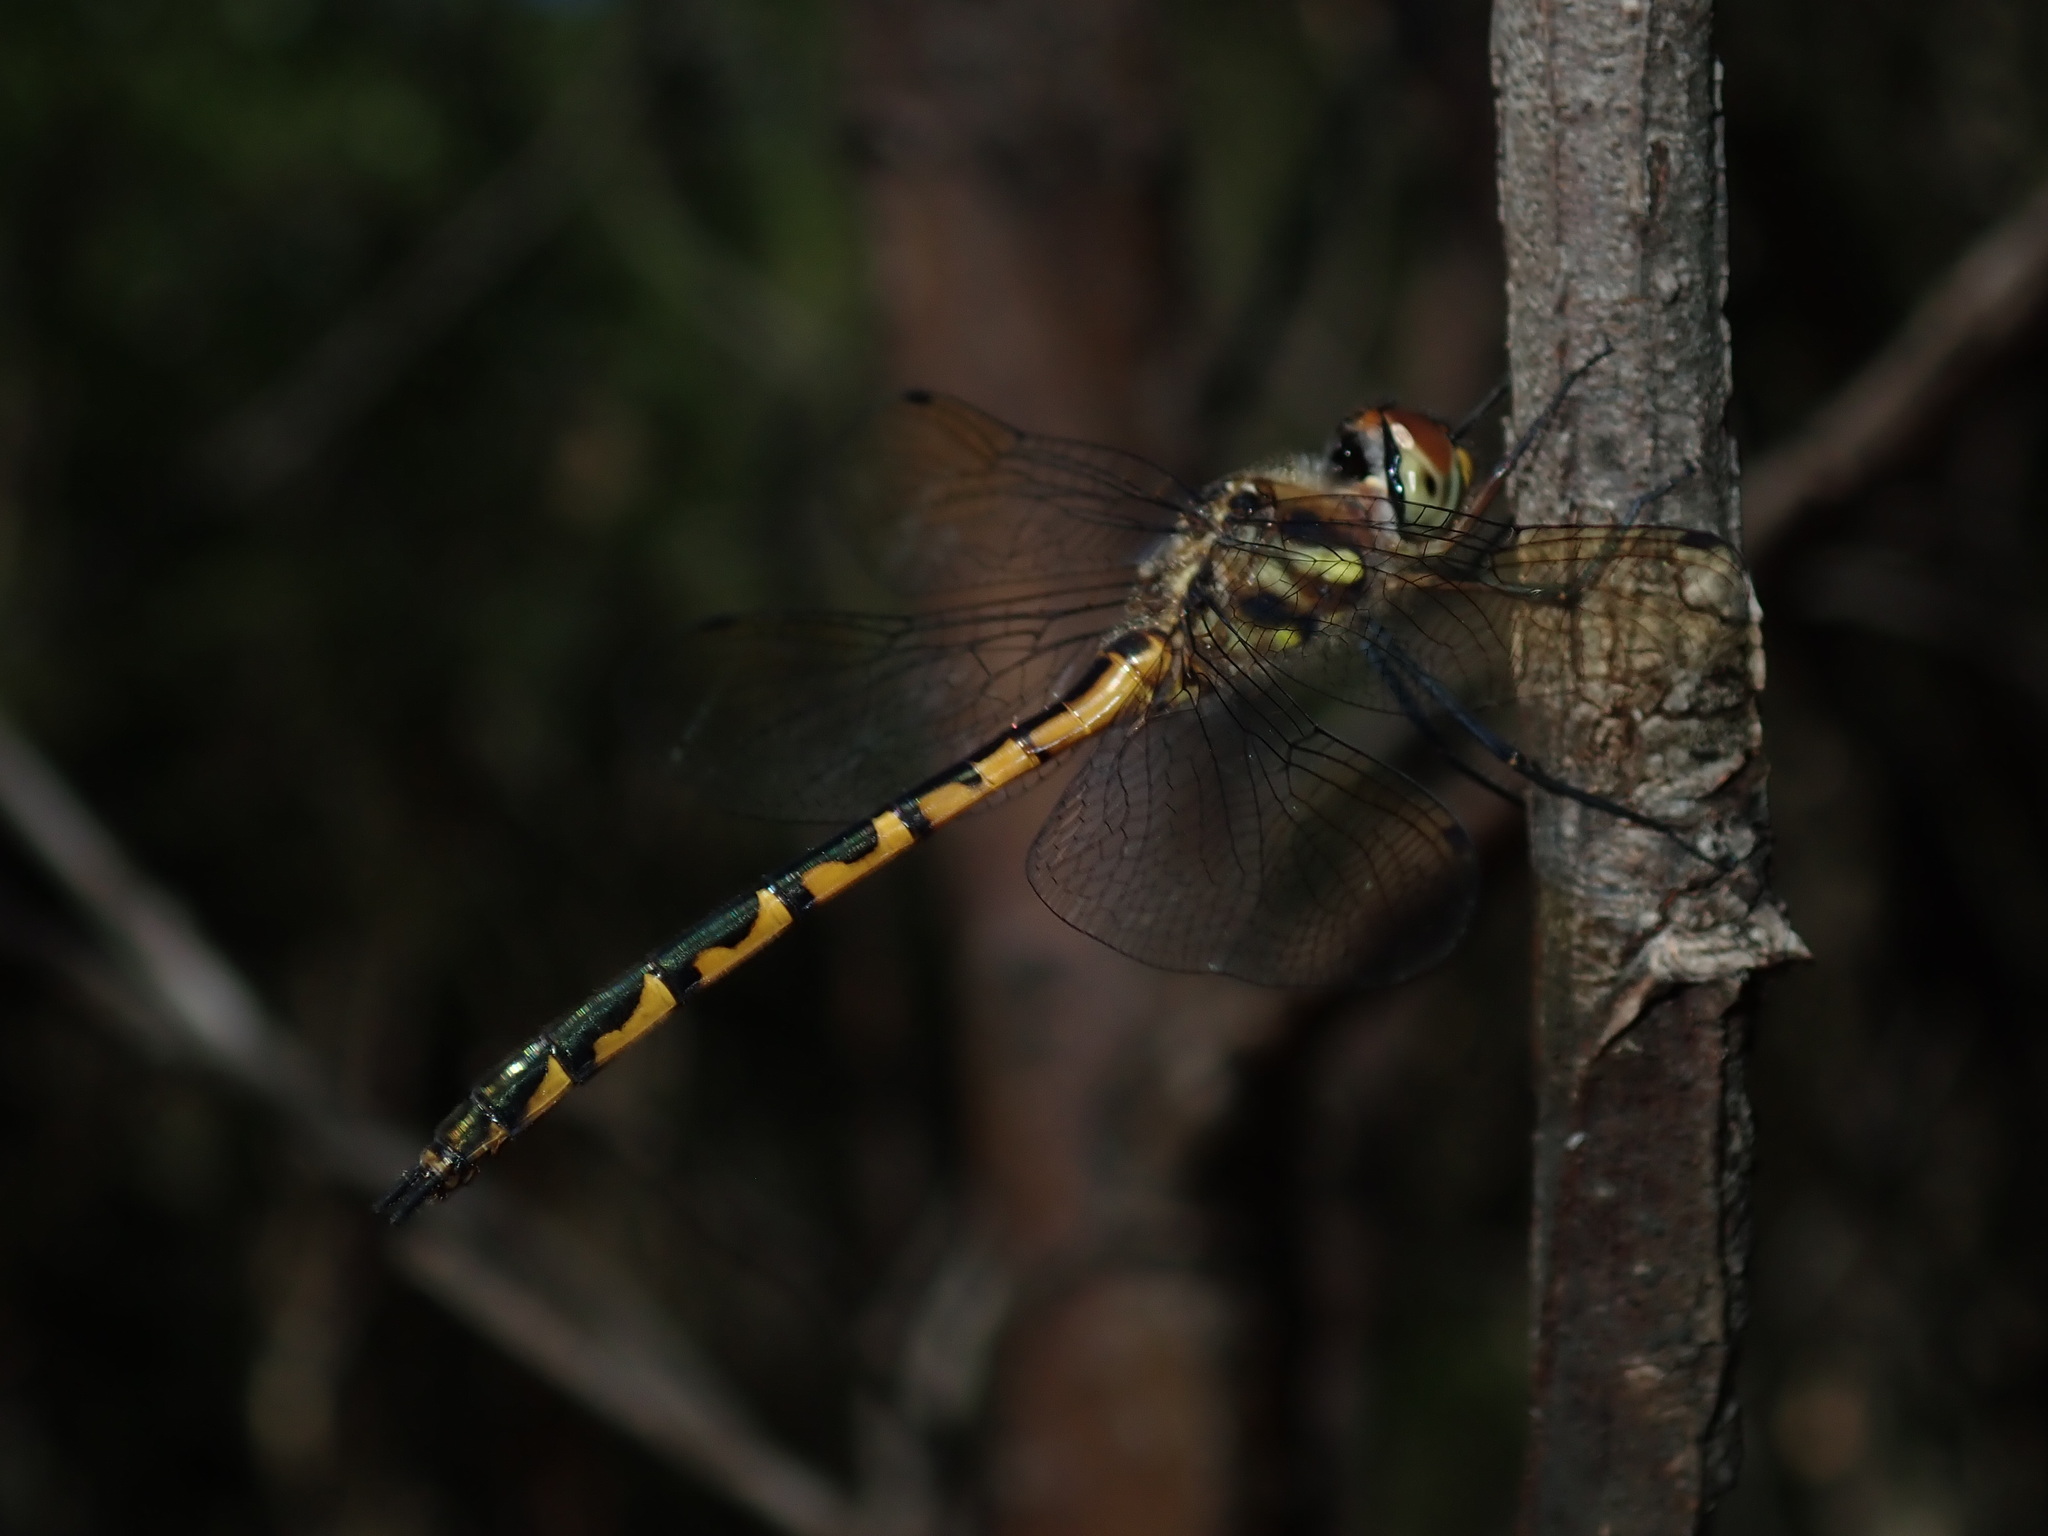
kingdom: Animalia
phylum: Arthropoda
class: Insecta
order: Odonata
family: Corduliidae
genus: Hemicordulia
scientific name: Hemicordulia australiae
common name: Sentry dragonfly
